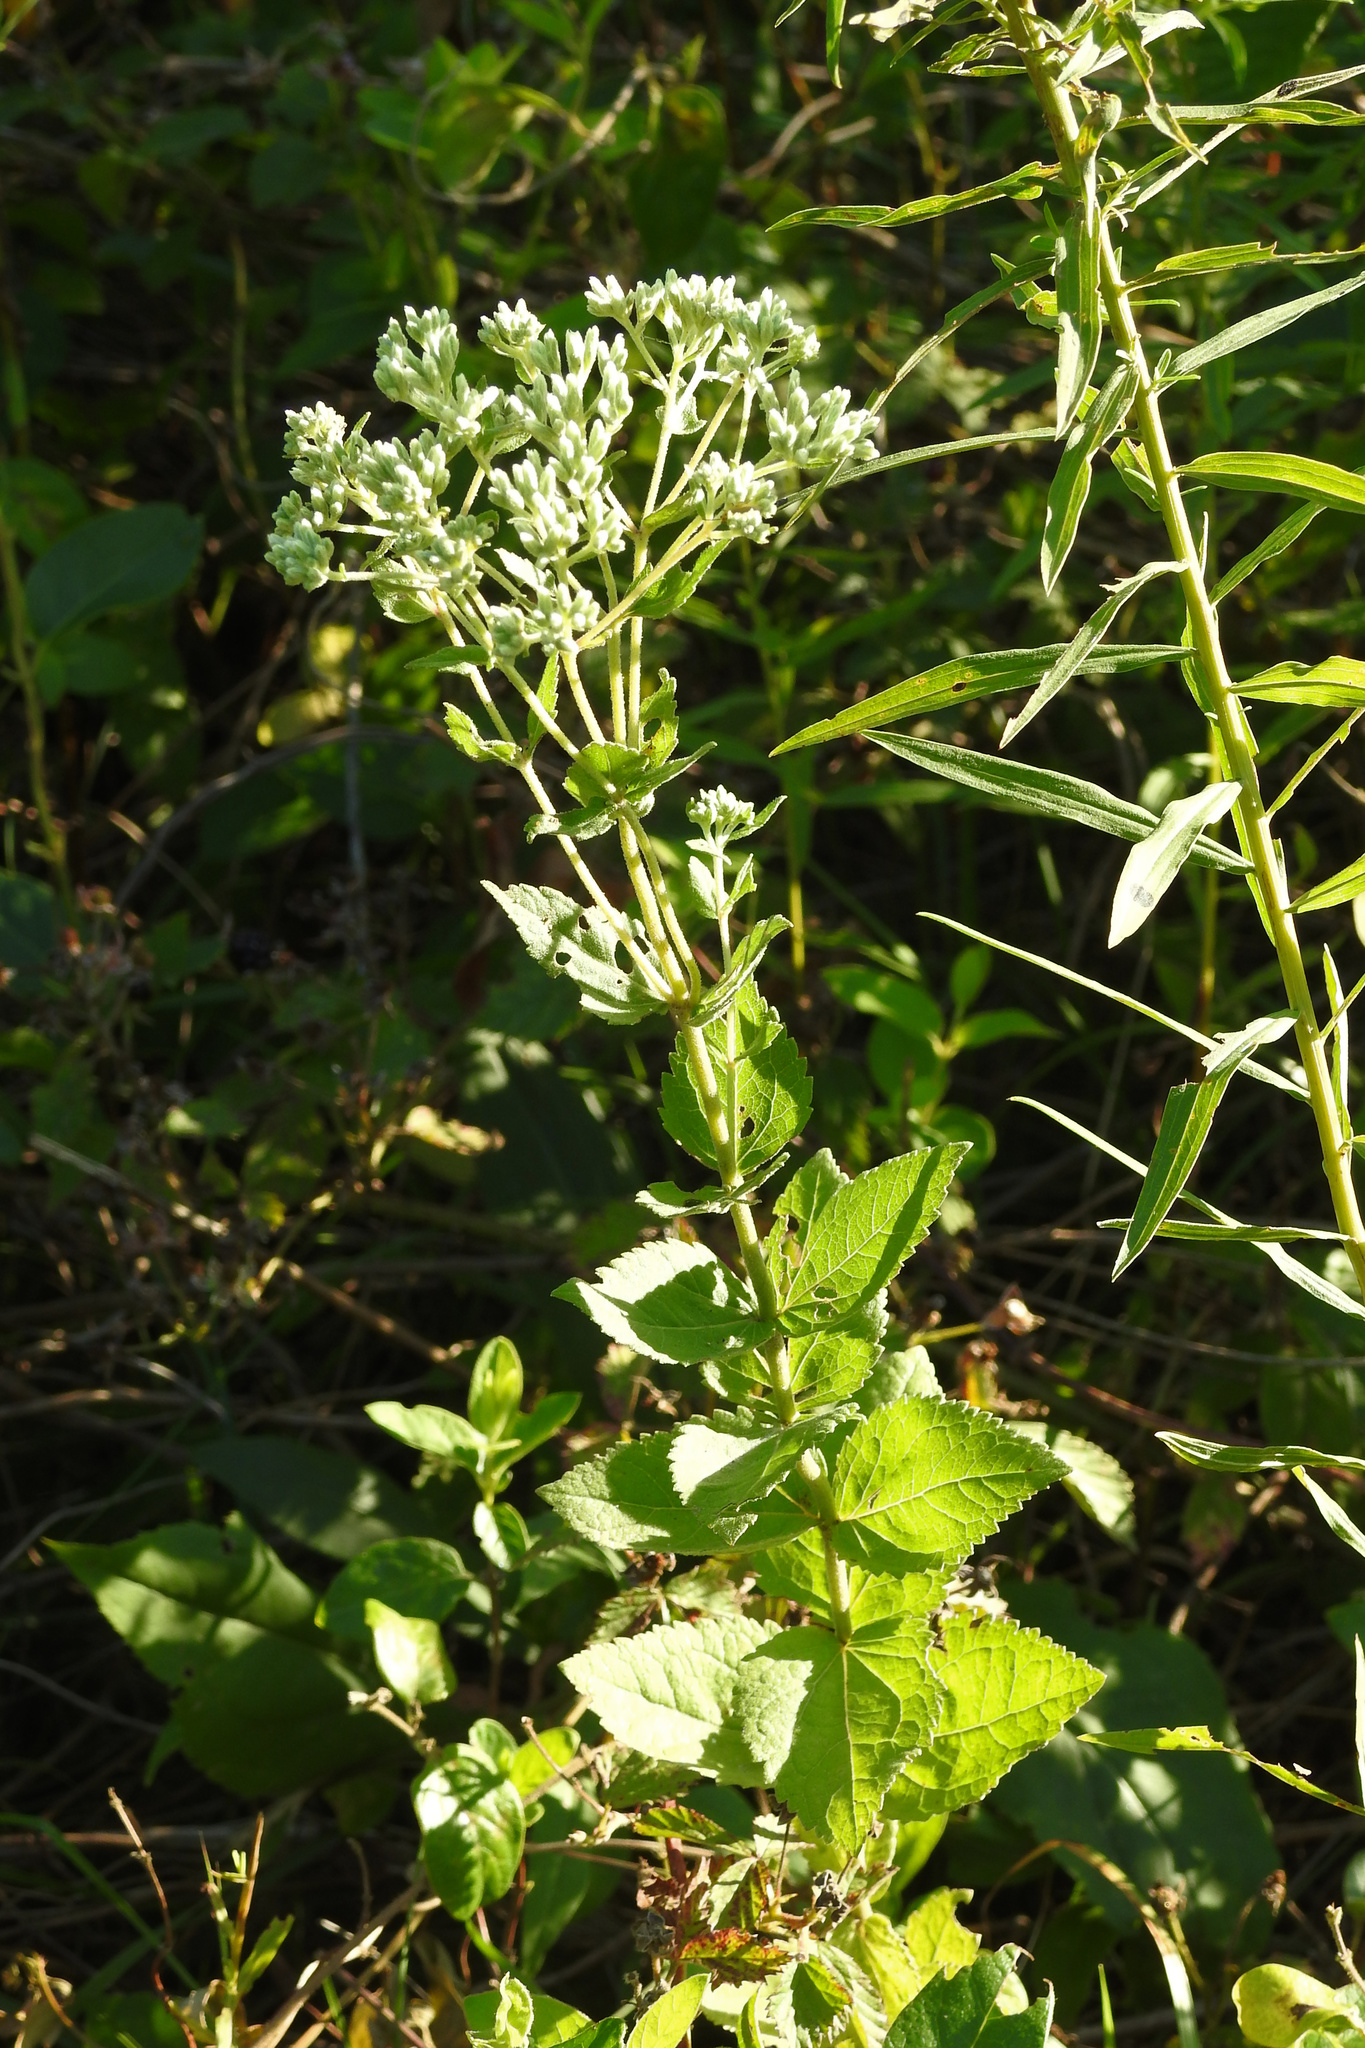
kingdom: Plantae
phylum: Tracheophyta
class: Magnoliopsida
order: Asterales
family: Asteraceae
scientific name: Asteraceae
